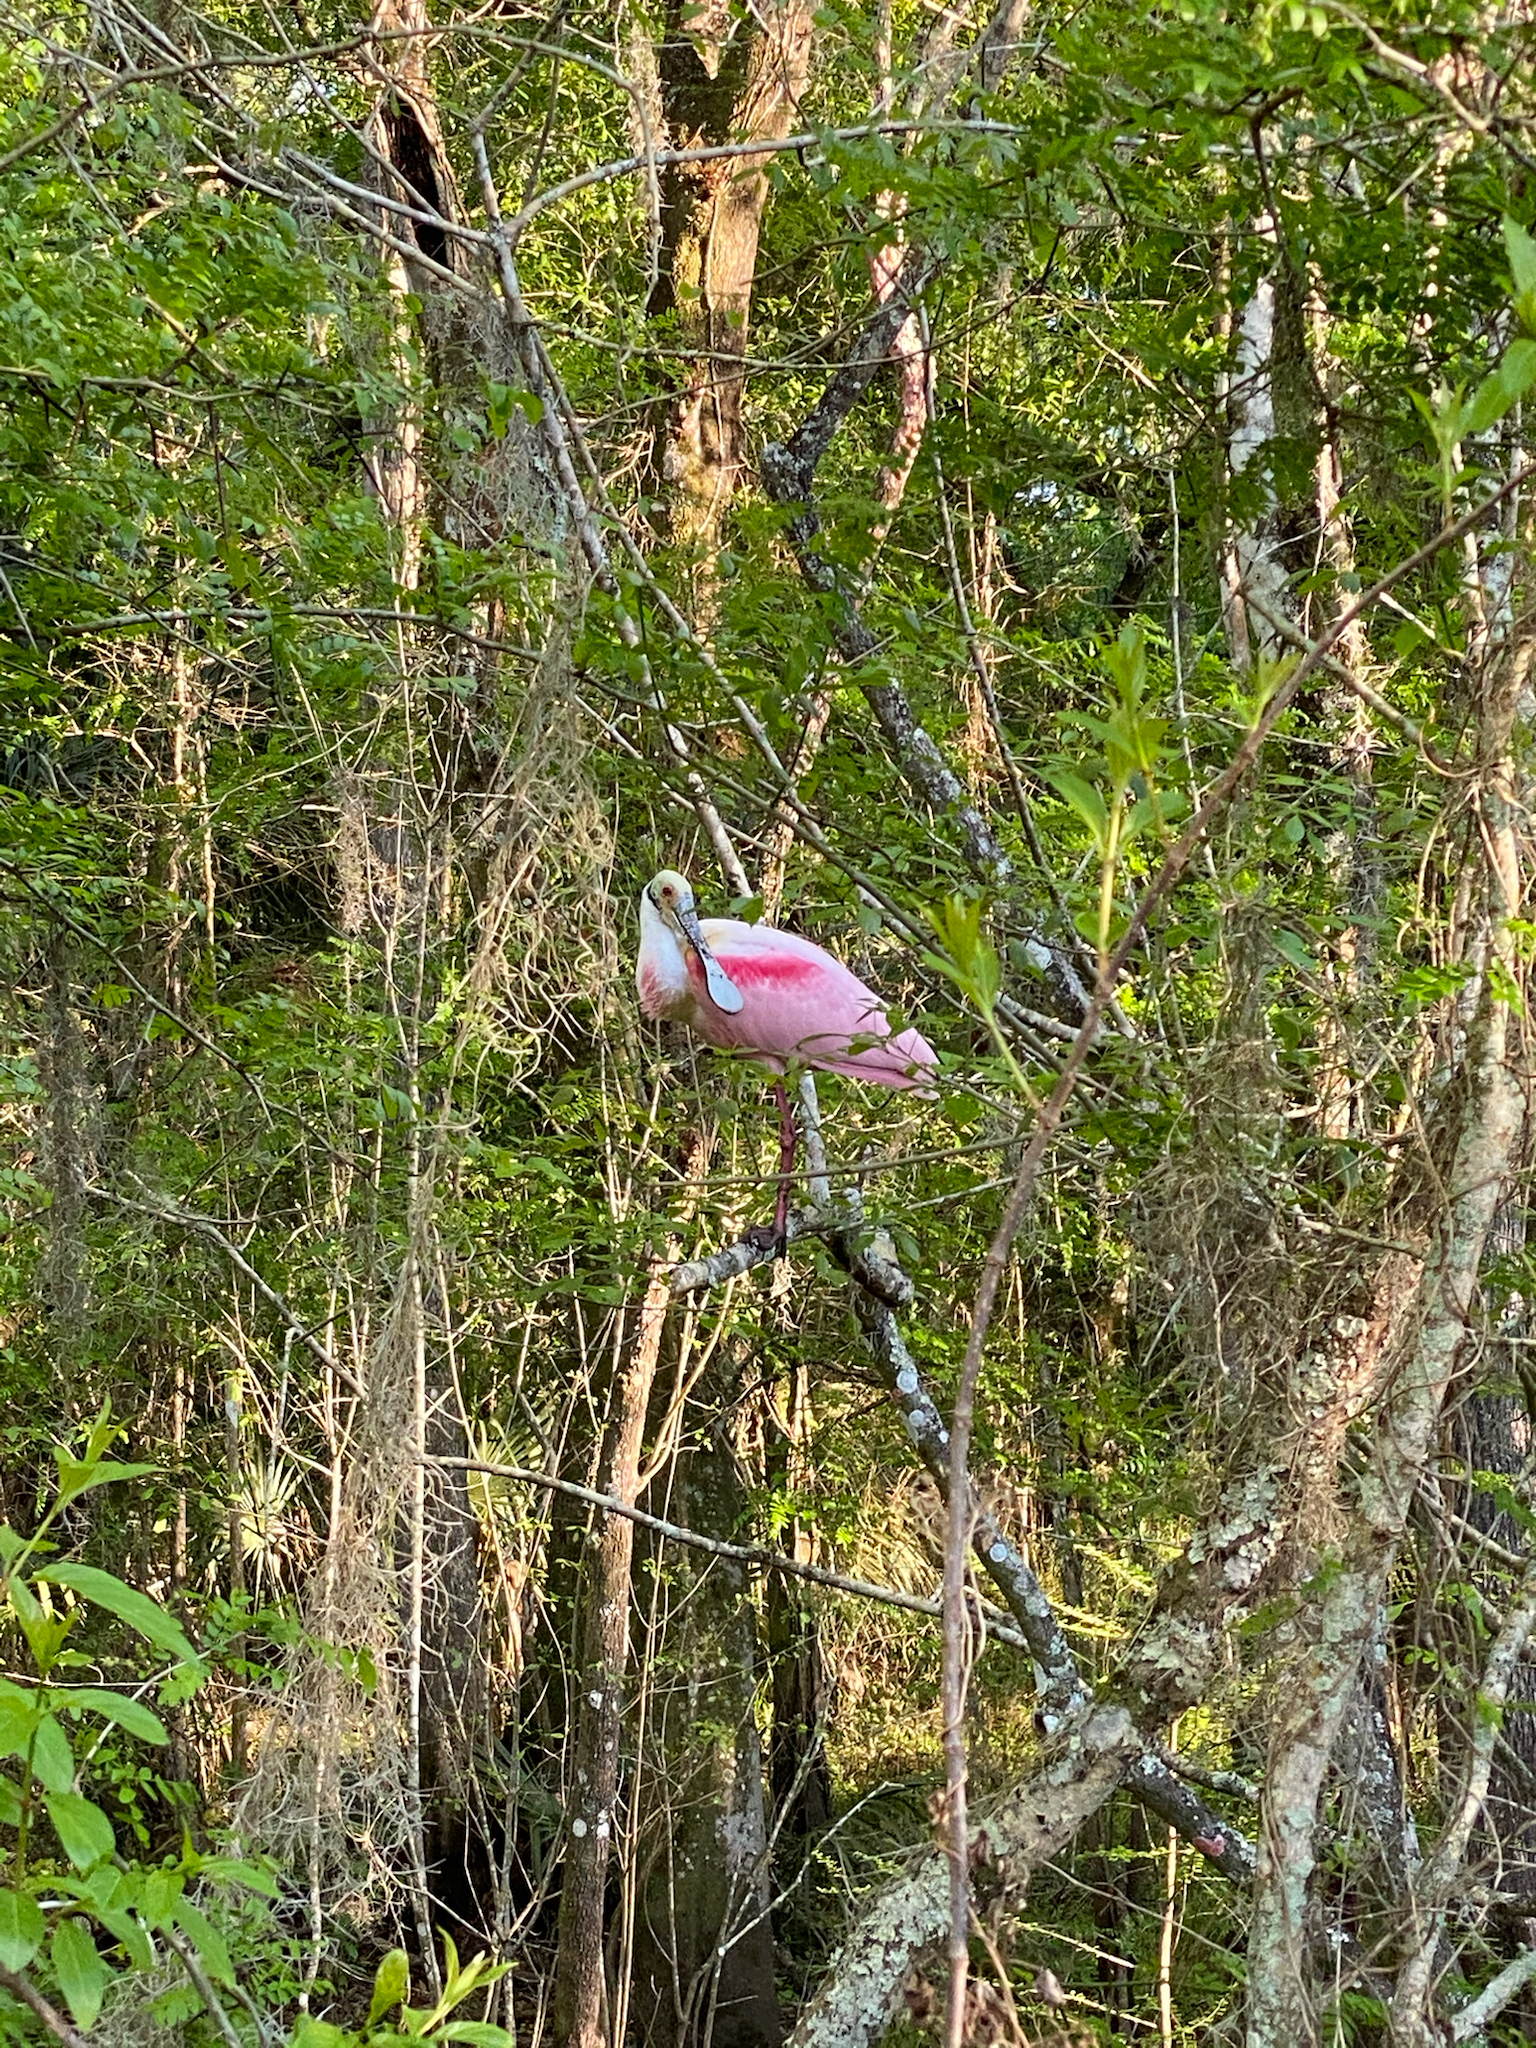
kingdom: Animalia
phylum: Chordata
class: Aves
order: Pelecaniformes
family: Threskiornithidae
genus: Platalea
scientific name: Platalea ajaja
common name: Roseate spoonbill
